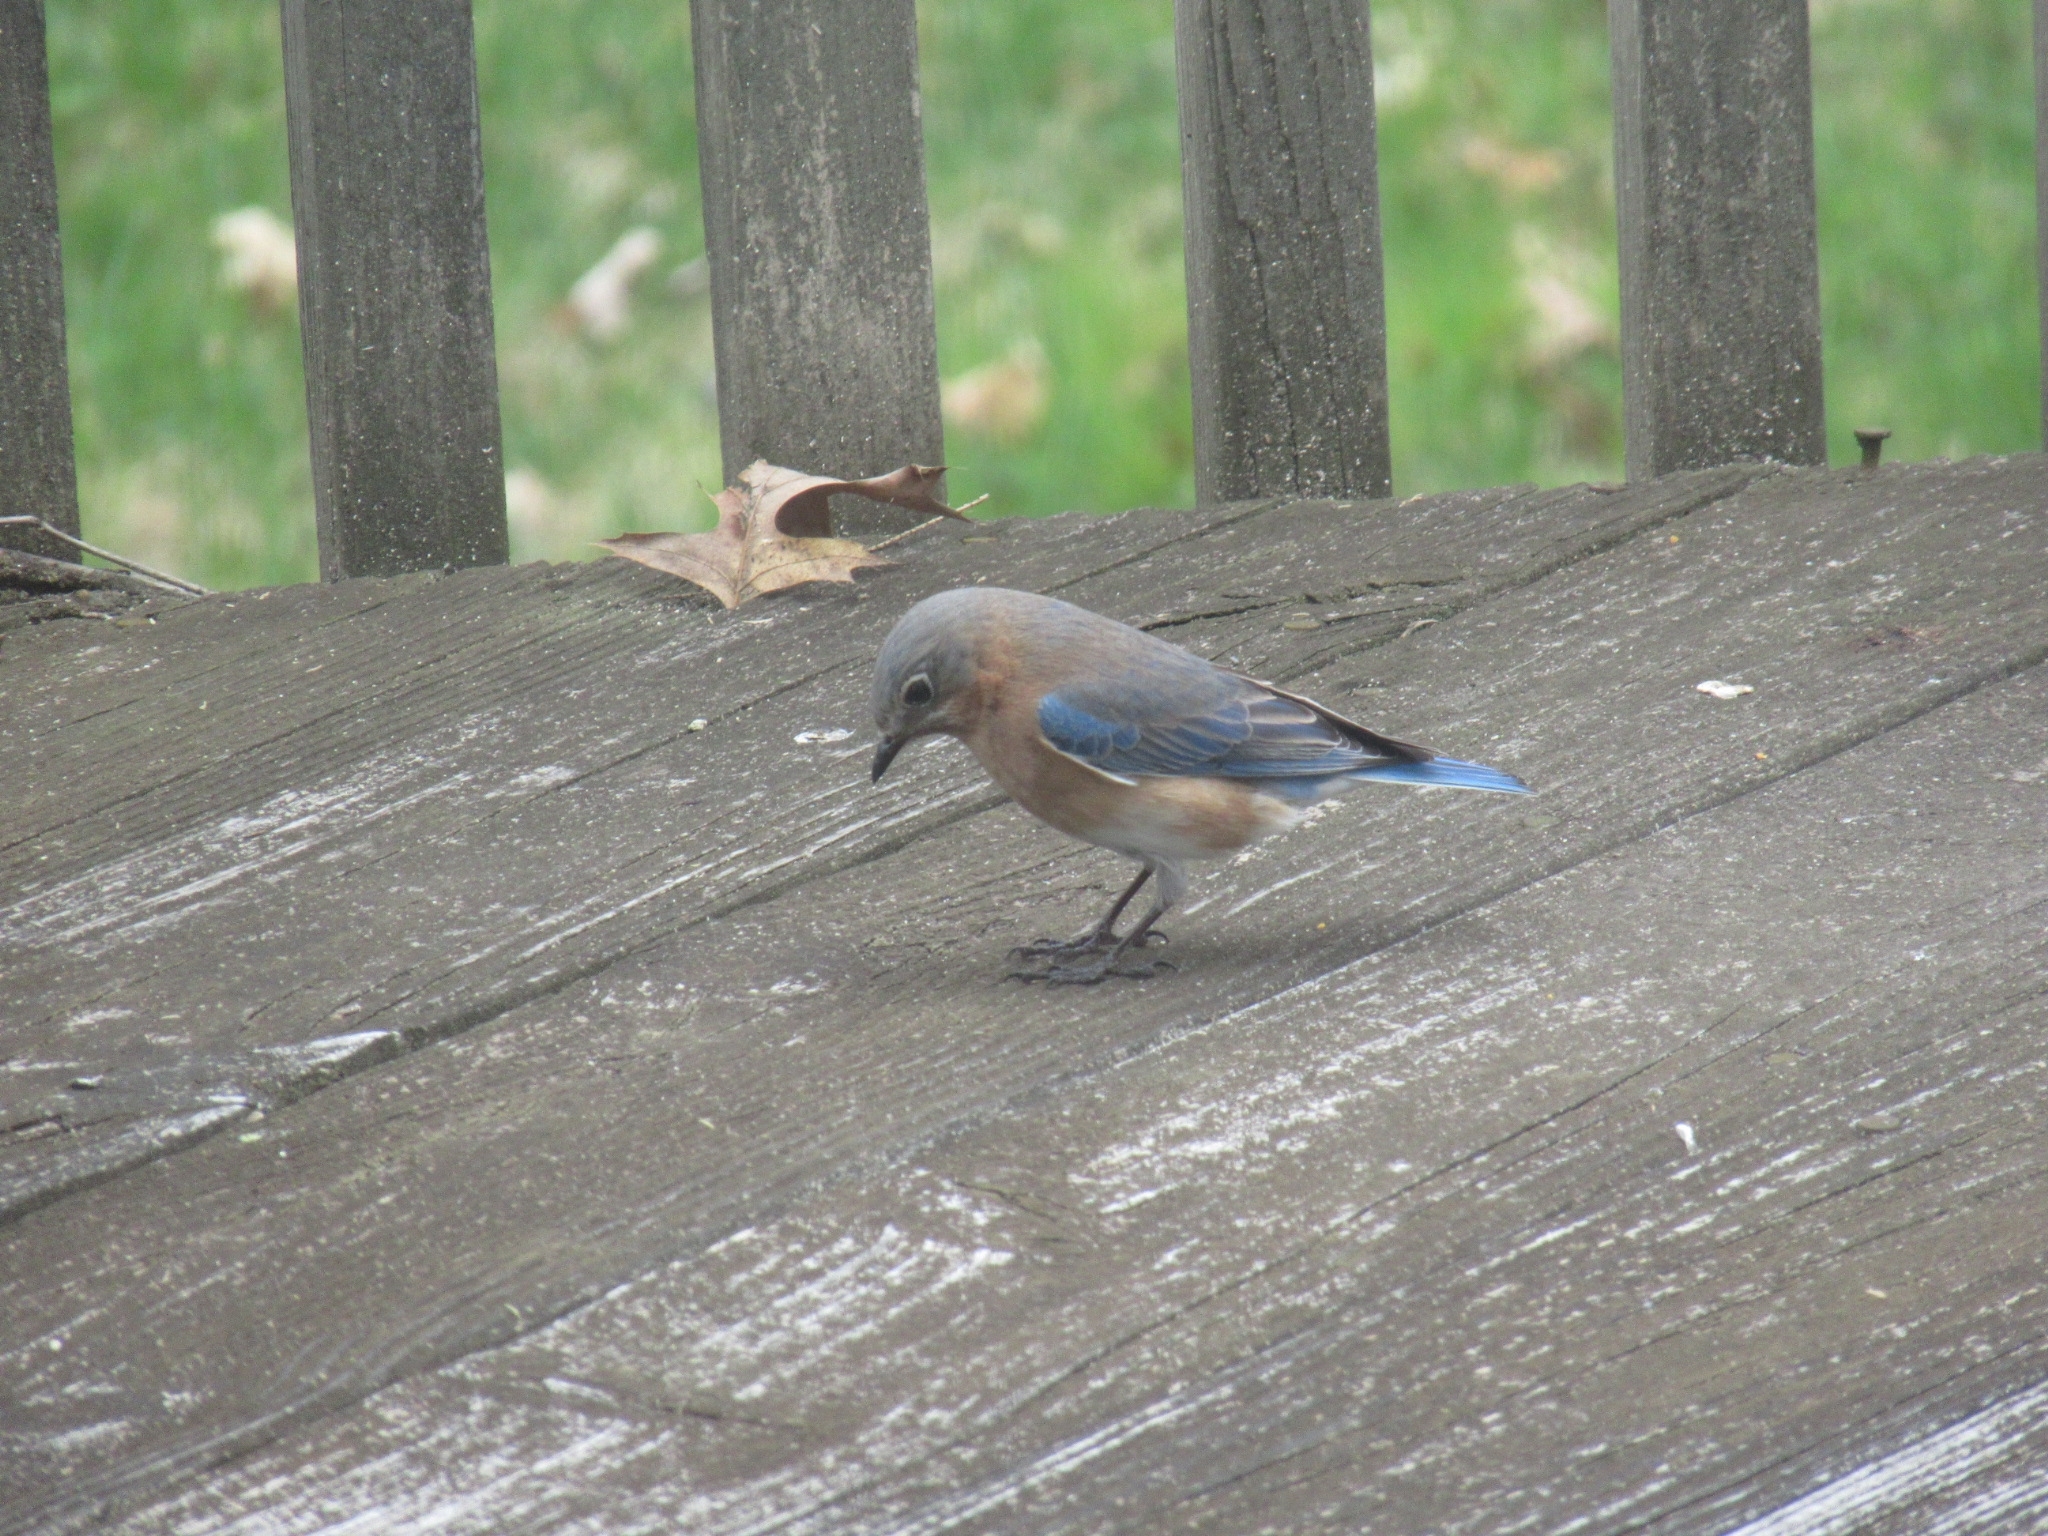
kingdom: Animalia
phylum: Chordata
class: Aves
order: Passeriformes
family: Turdidae
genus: Sialia
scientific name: Sialia sialis
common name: Eastern bluebird
